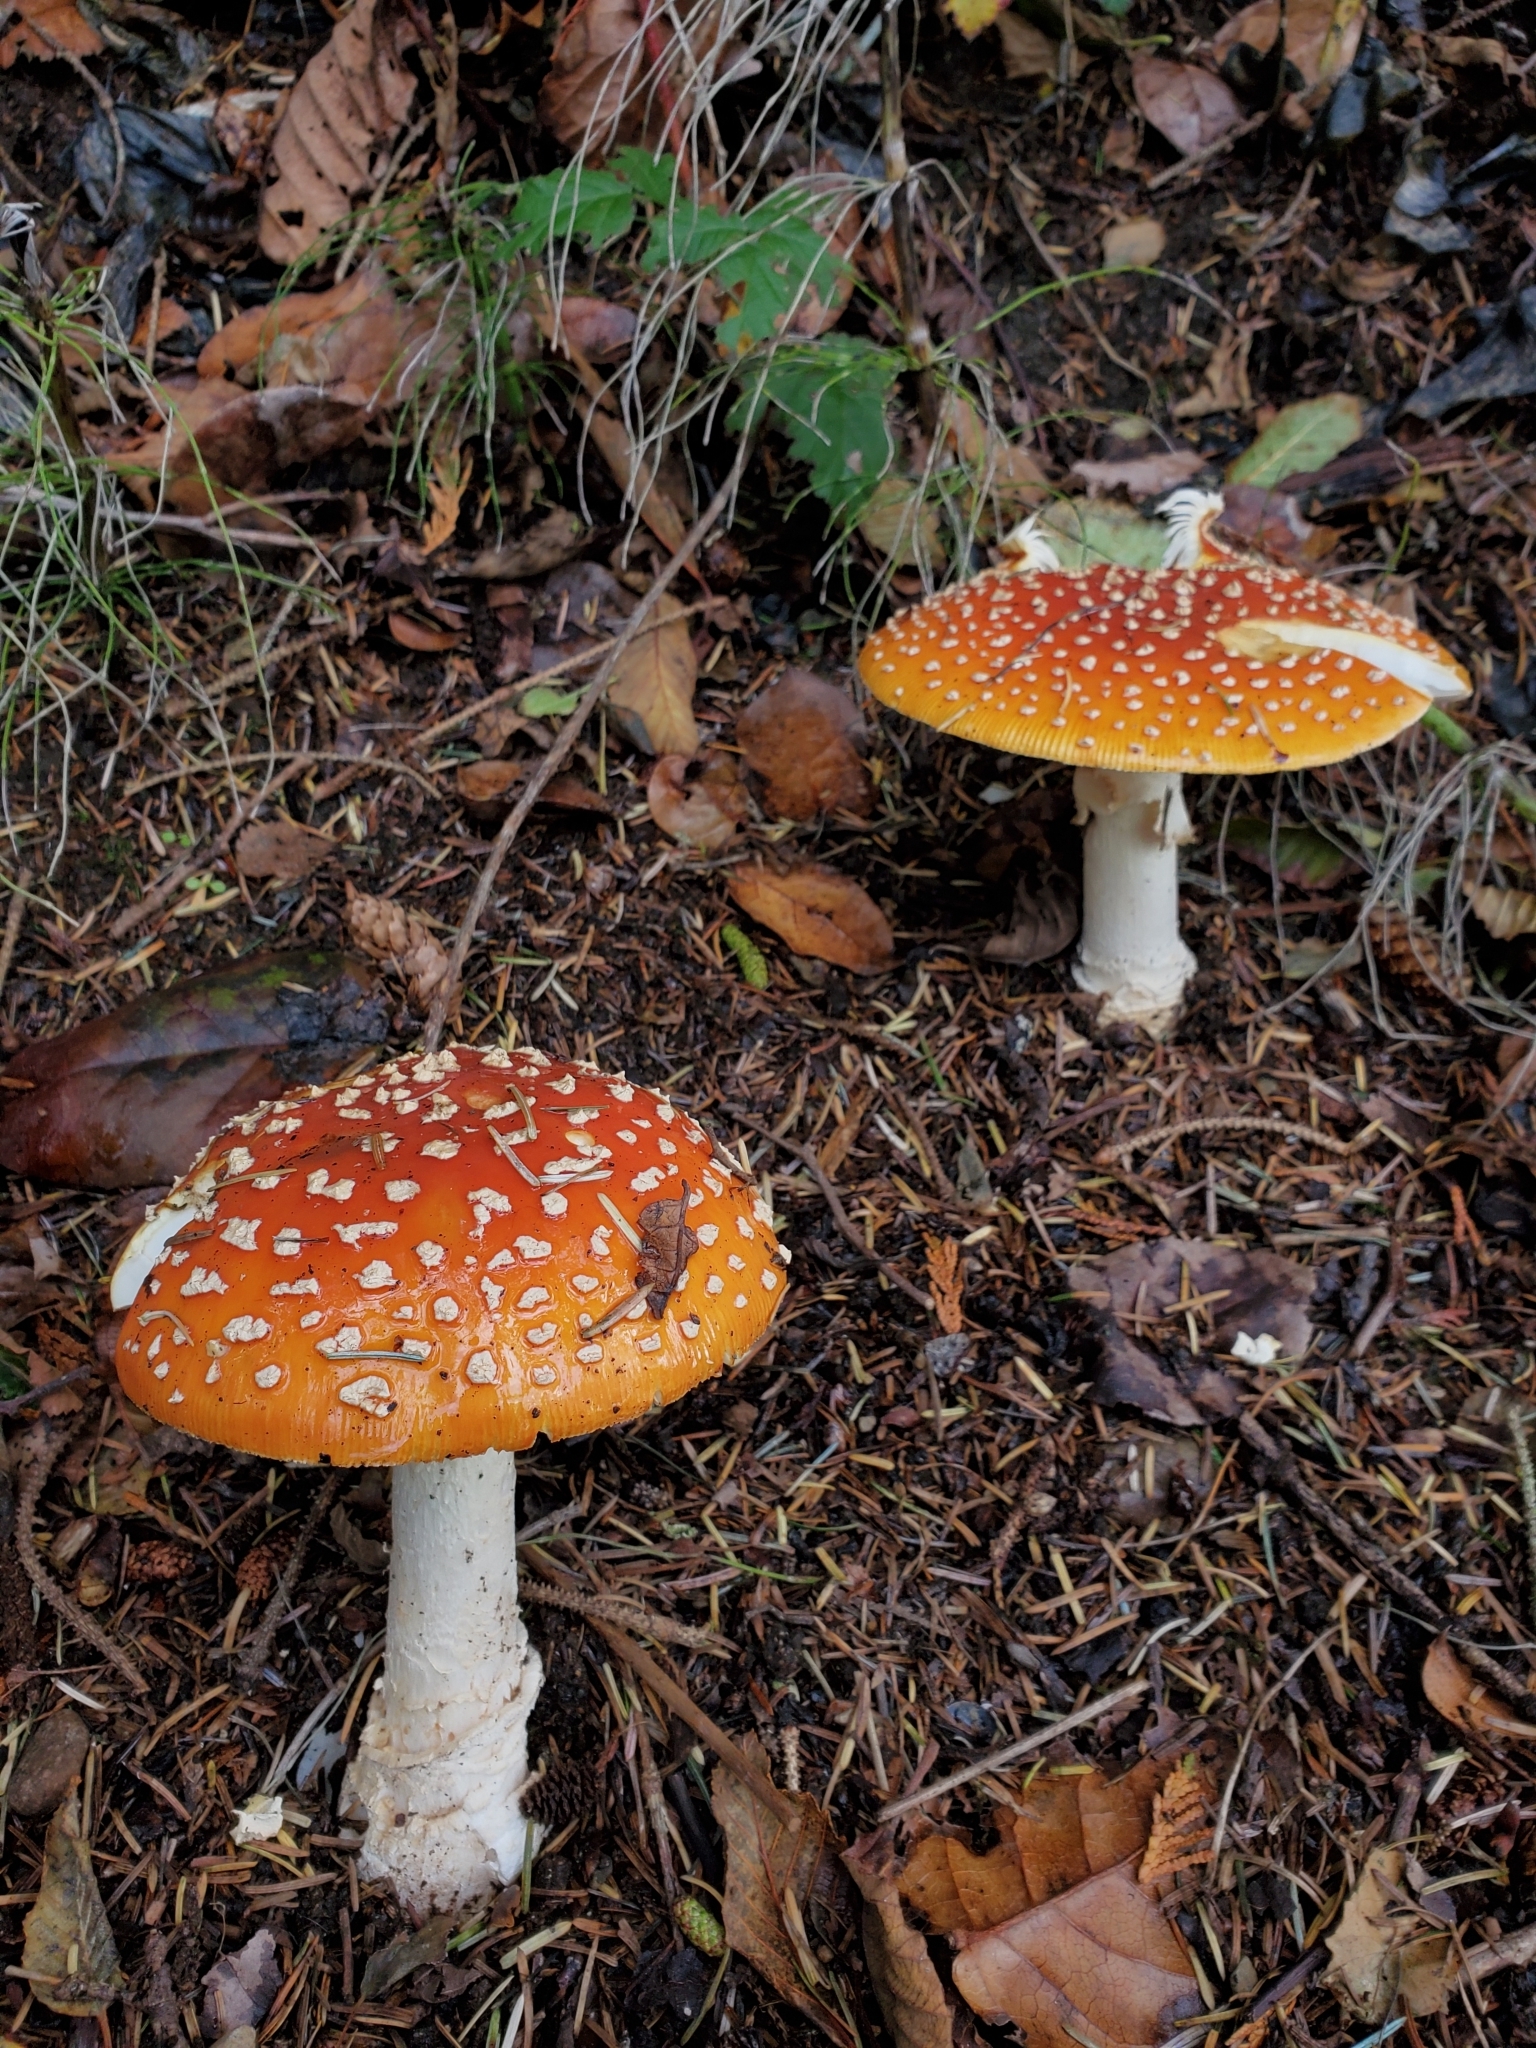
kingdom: Fungi
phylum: Basidiomycota
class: Agaricomycetes
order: Agaricales
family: Amanitaceae
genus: Amanita
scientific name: Amanita muscaria
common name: Fly agaric
